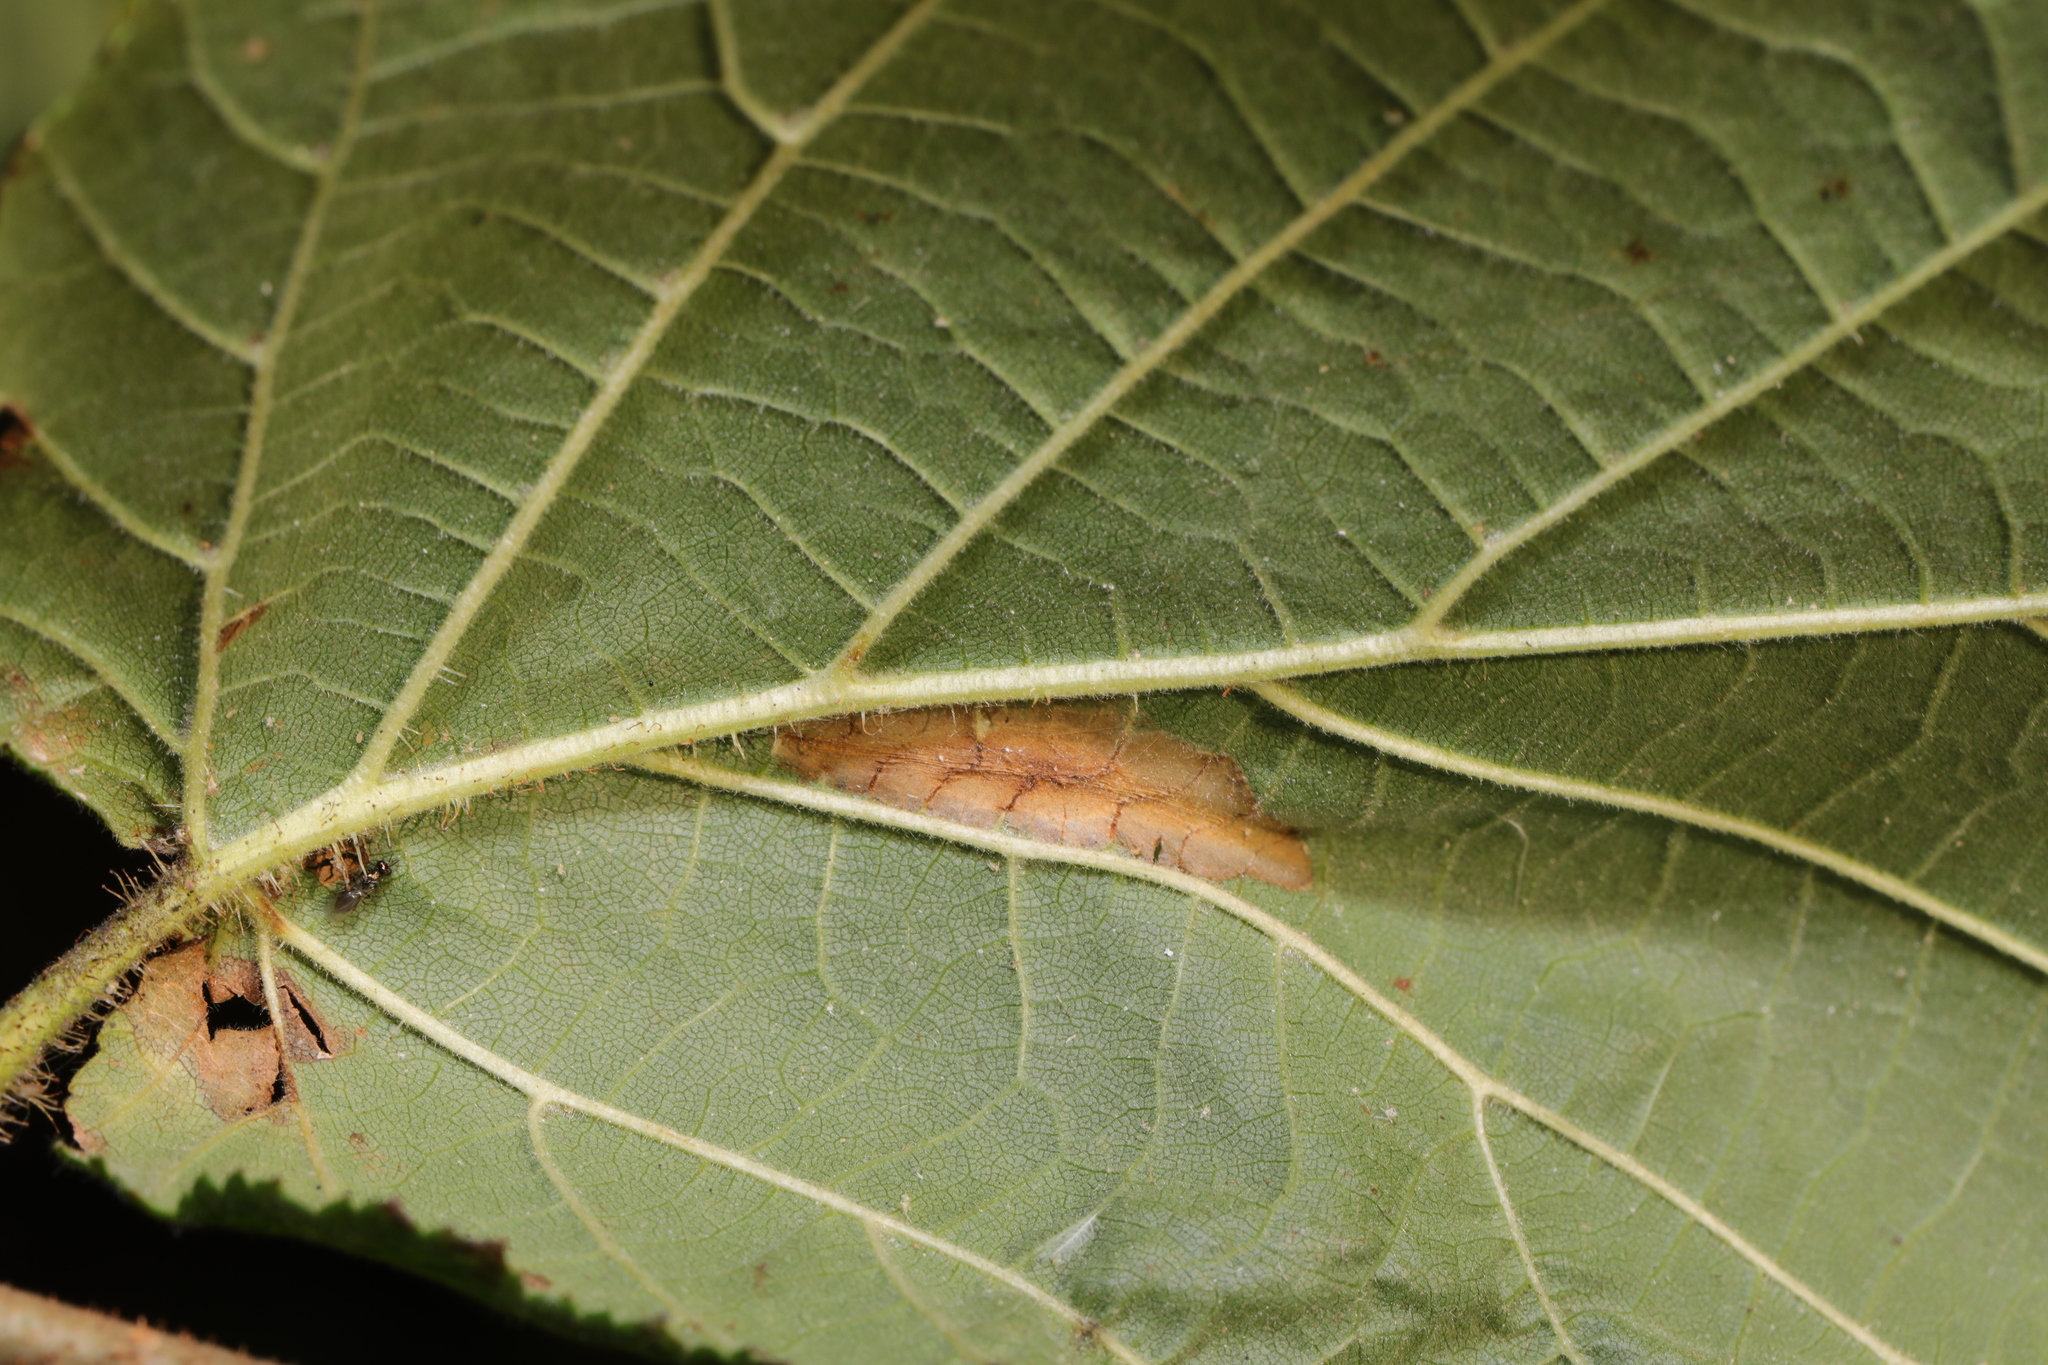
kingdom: Animalia
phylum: Arthropoda
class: Insecta
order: Lepidoptera
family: Gracillariidae
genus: Phyllonorycter
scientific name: Phyllonorycter nicellii
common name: Red hazel midget
